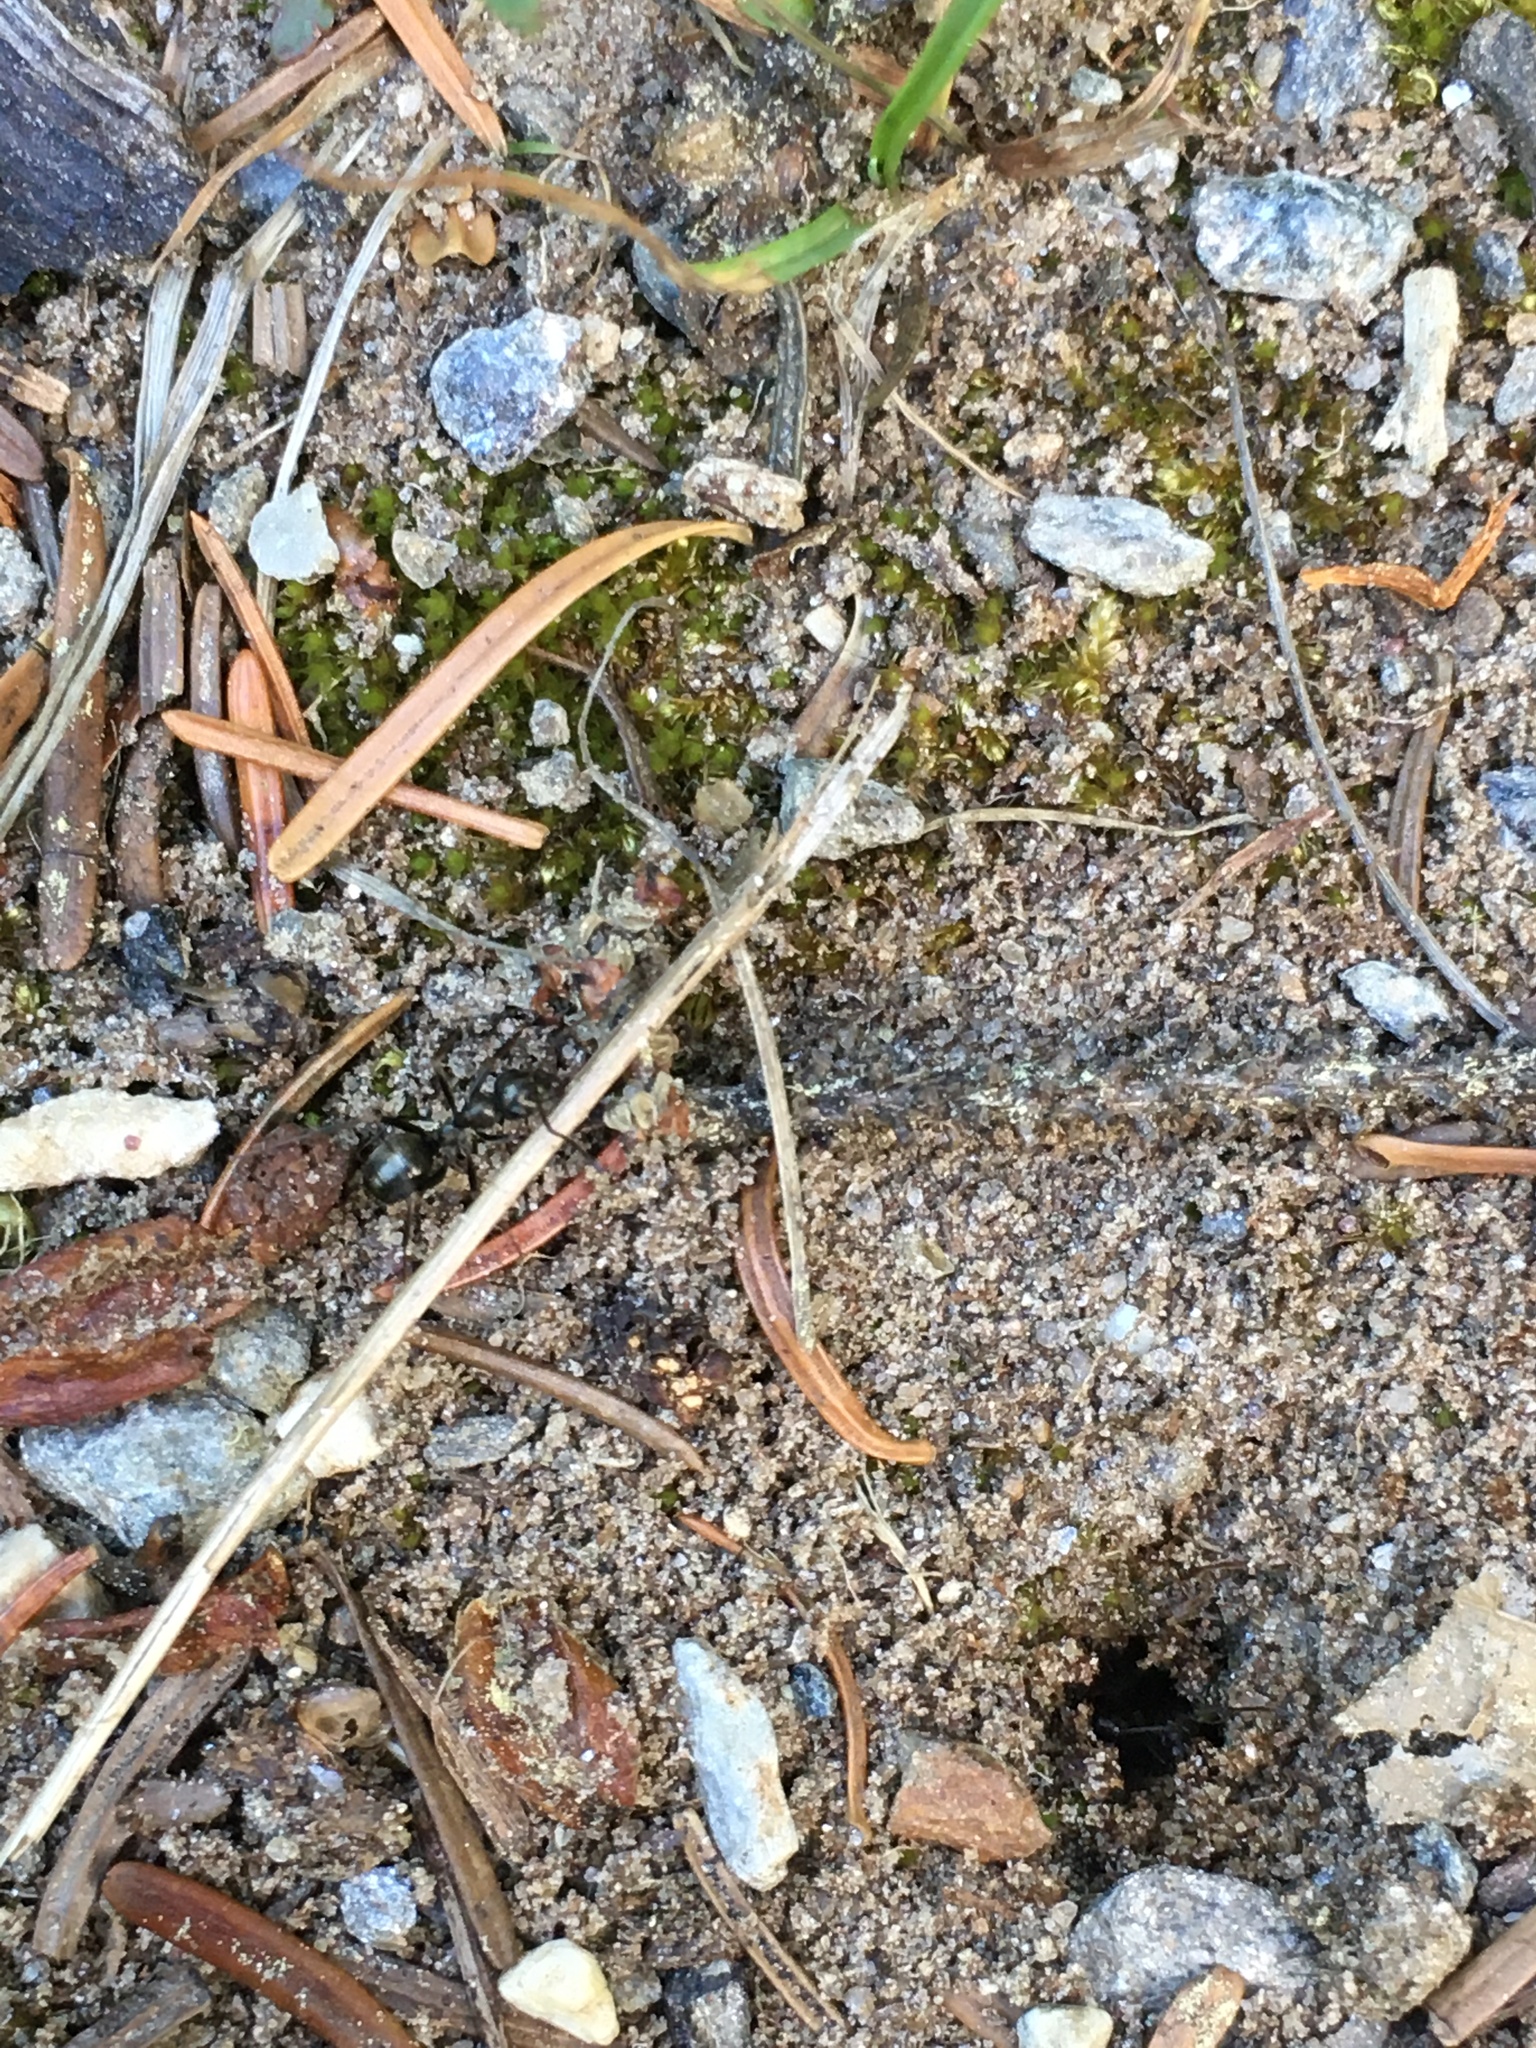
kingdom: Animalia
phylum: Arthropoda
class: Insecta
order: Hymenoptera
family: Formicidae
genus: Formica
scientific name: Formica
